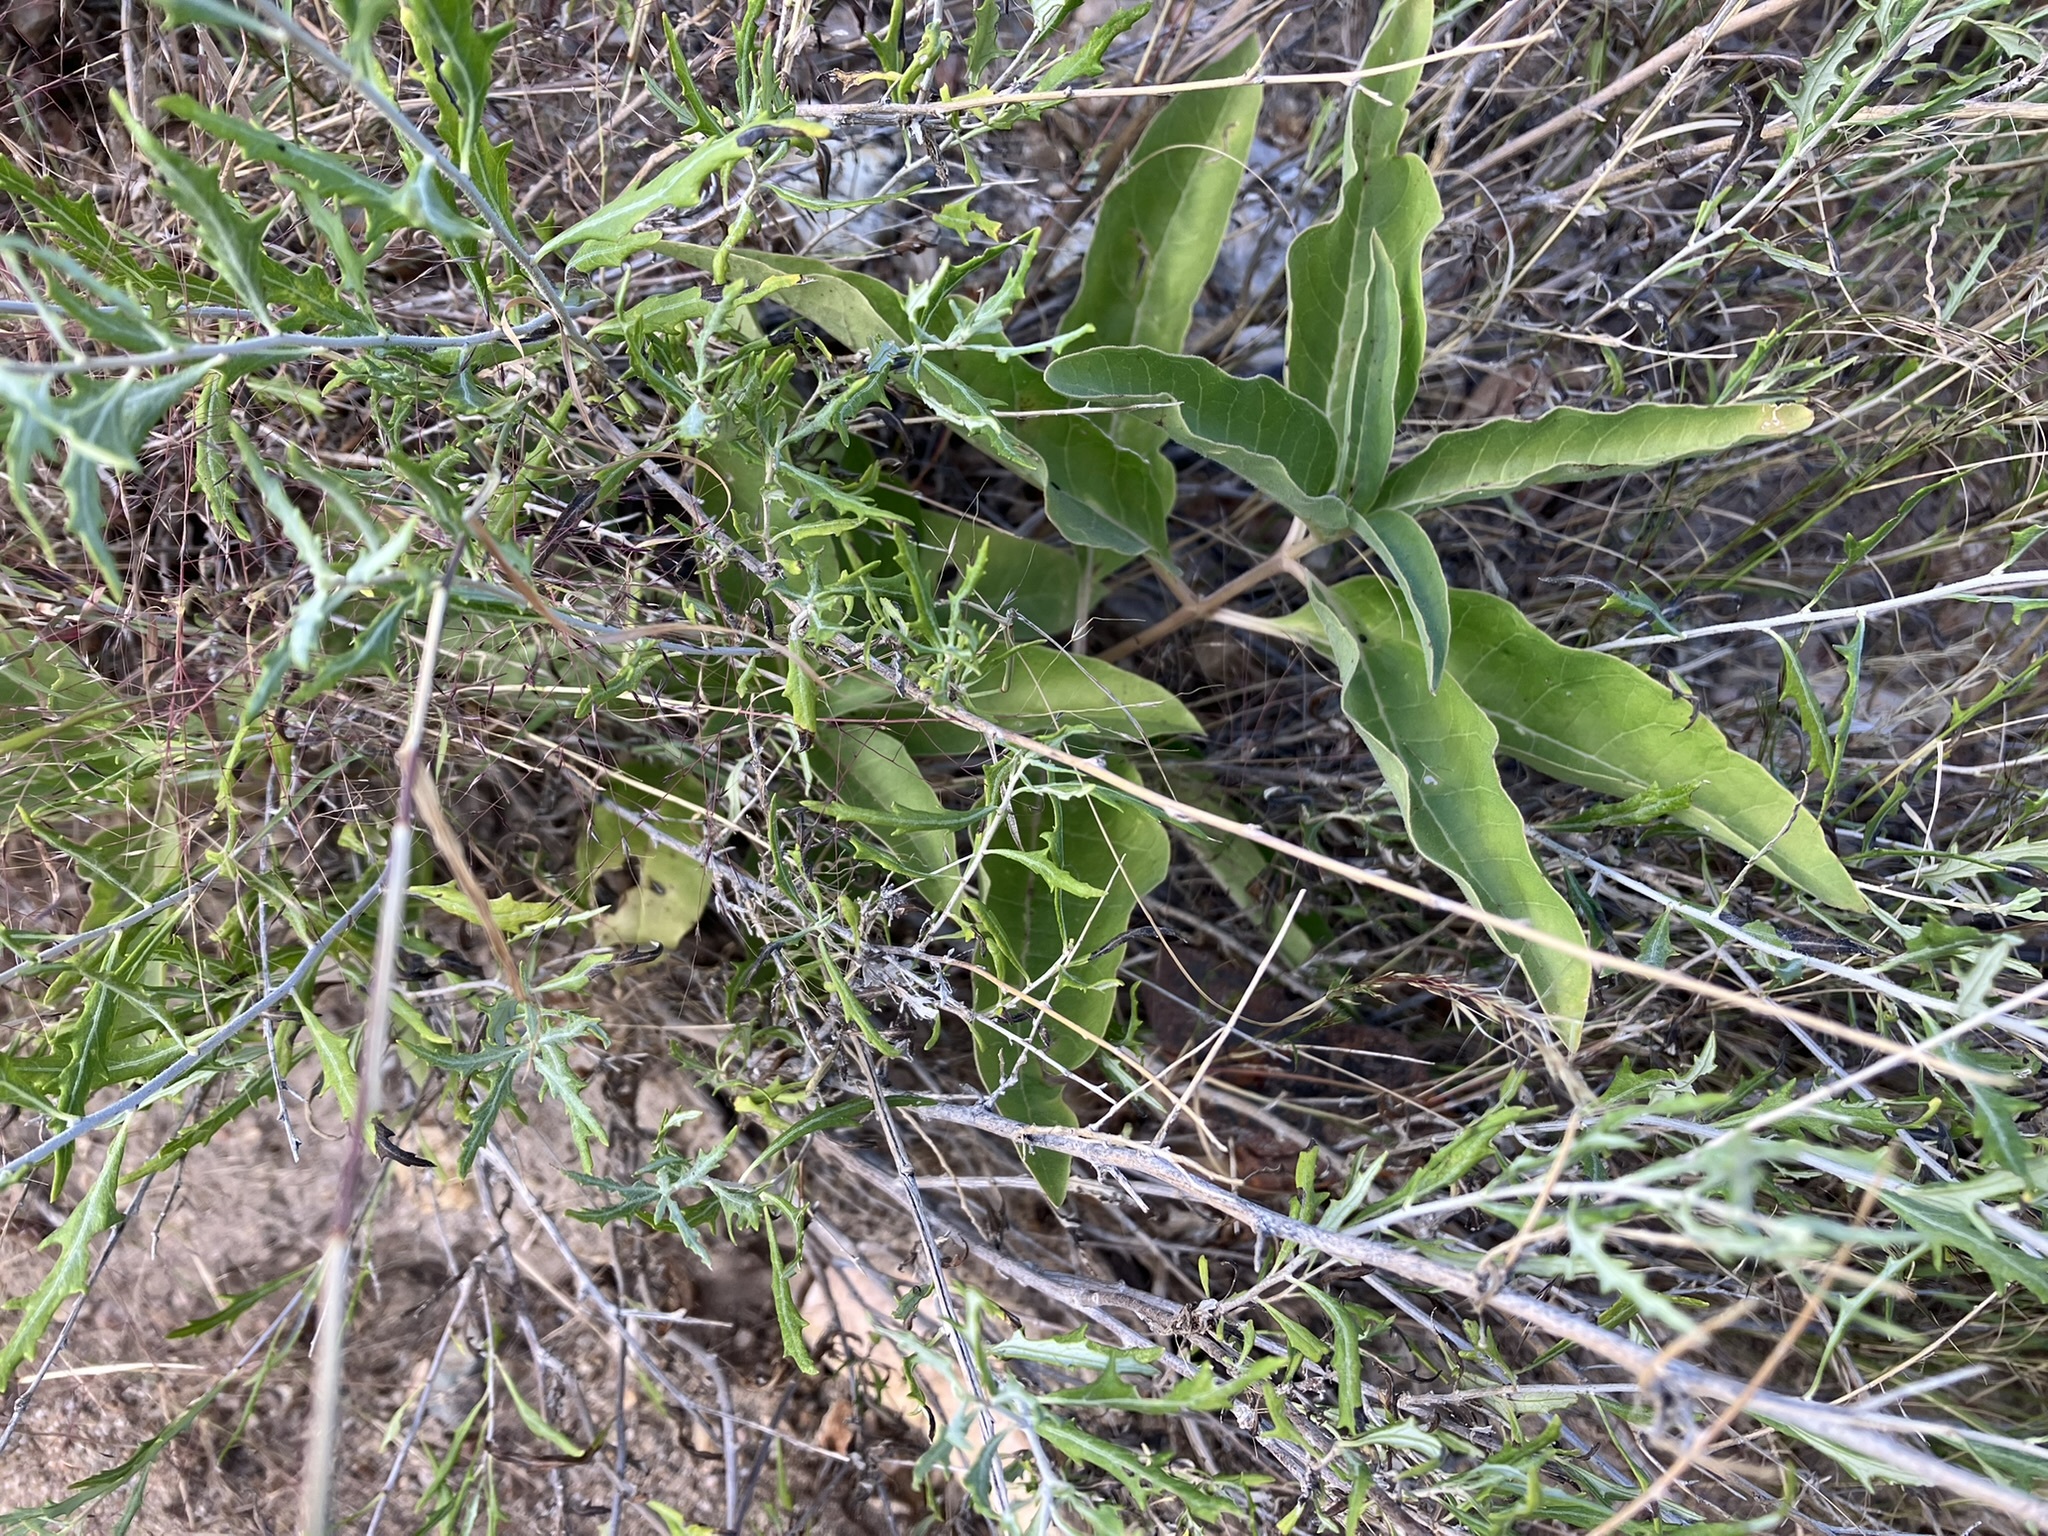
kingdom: Plantae
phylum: Tracheophyta
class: Magnoliopsida
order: Gentianales
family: Apocynaceae
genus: Asclepias
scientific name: Asclepias nyctaginifolia
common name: Mojave milkweed
